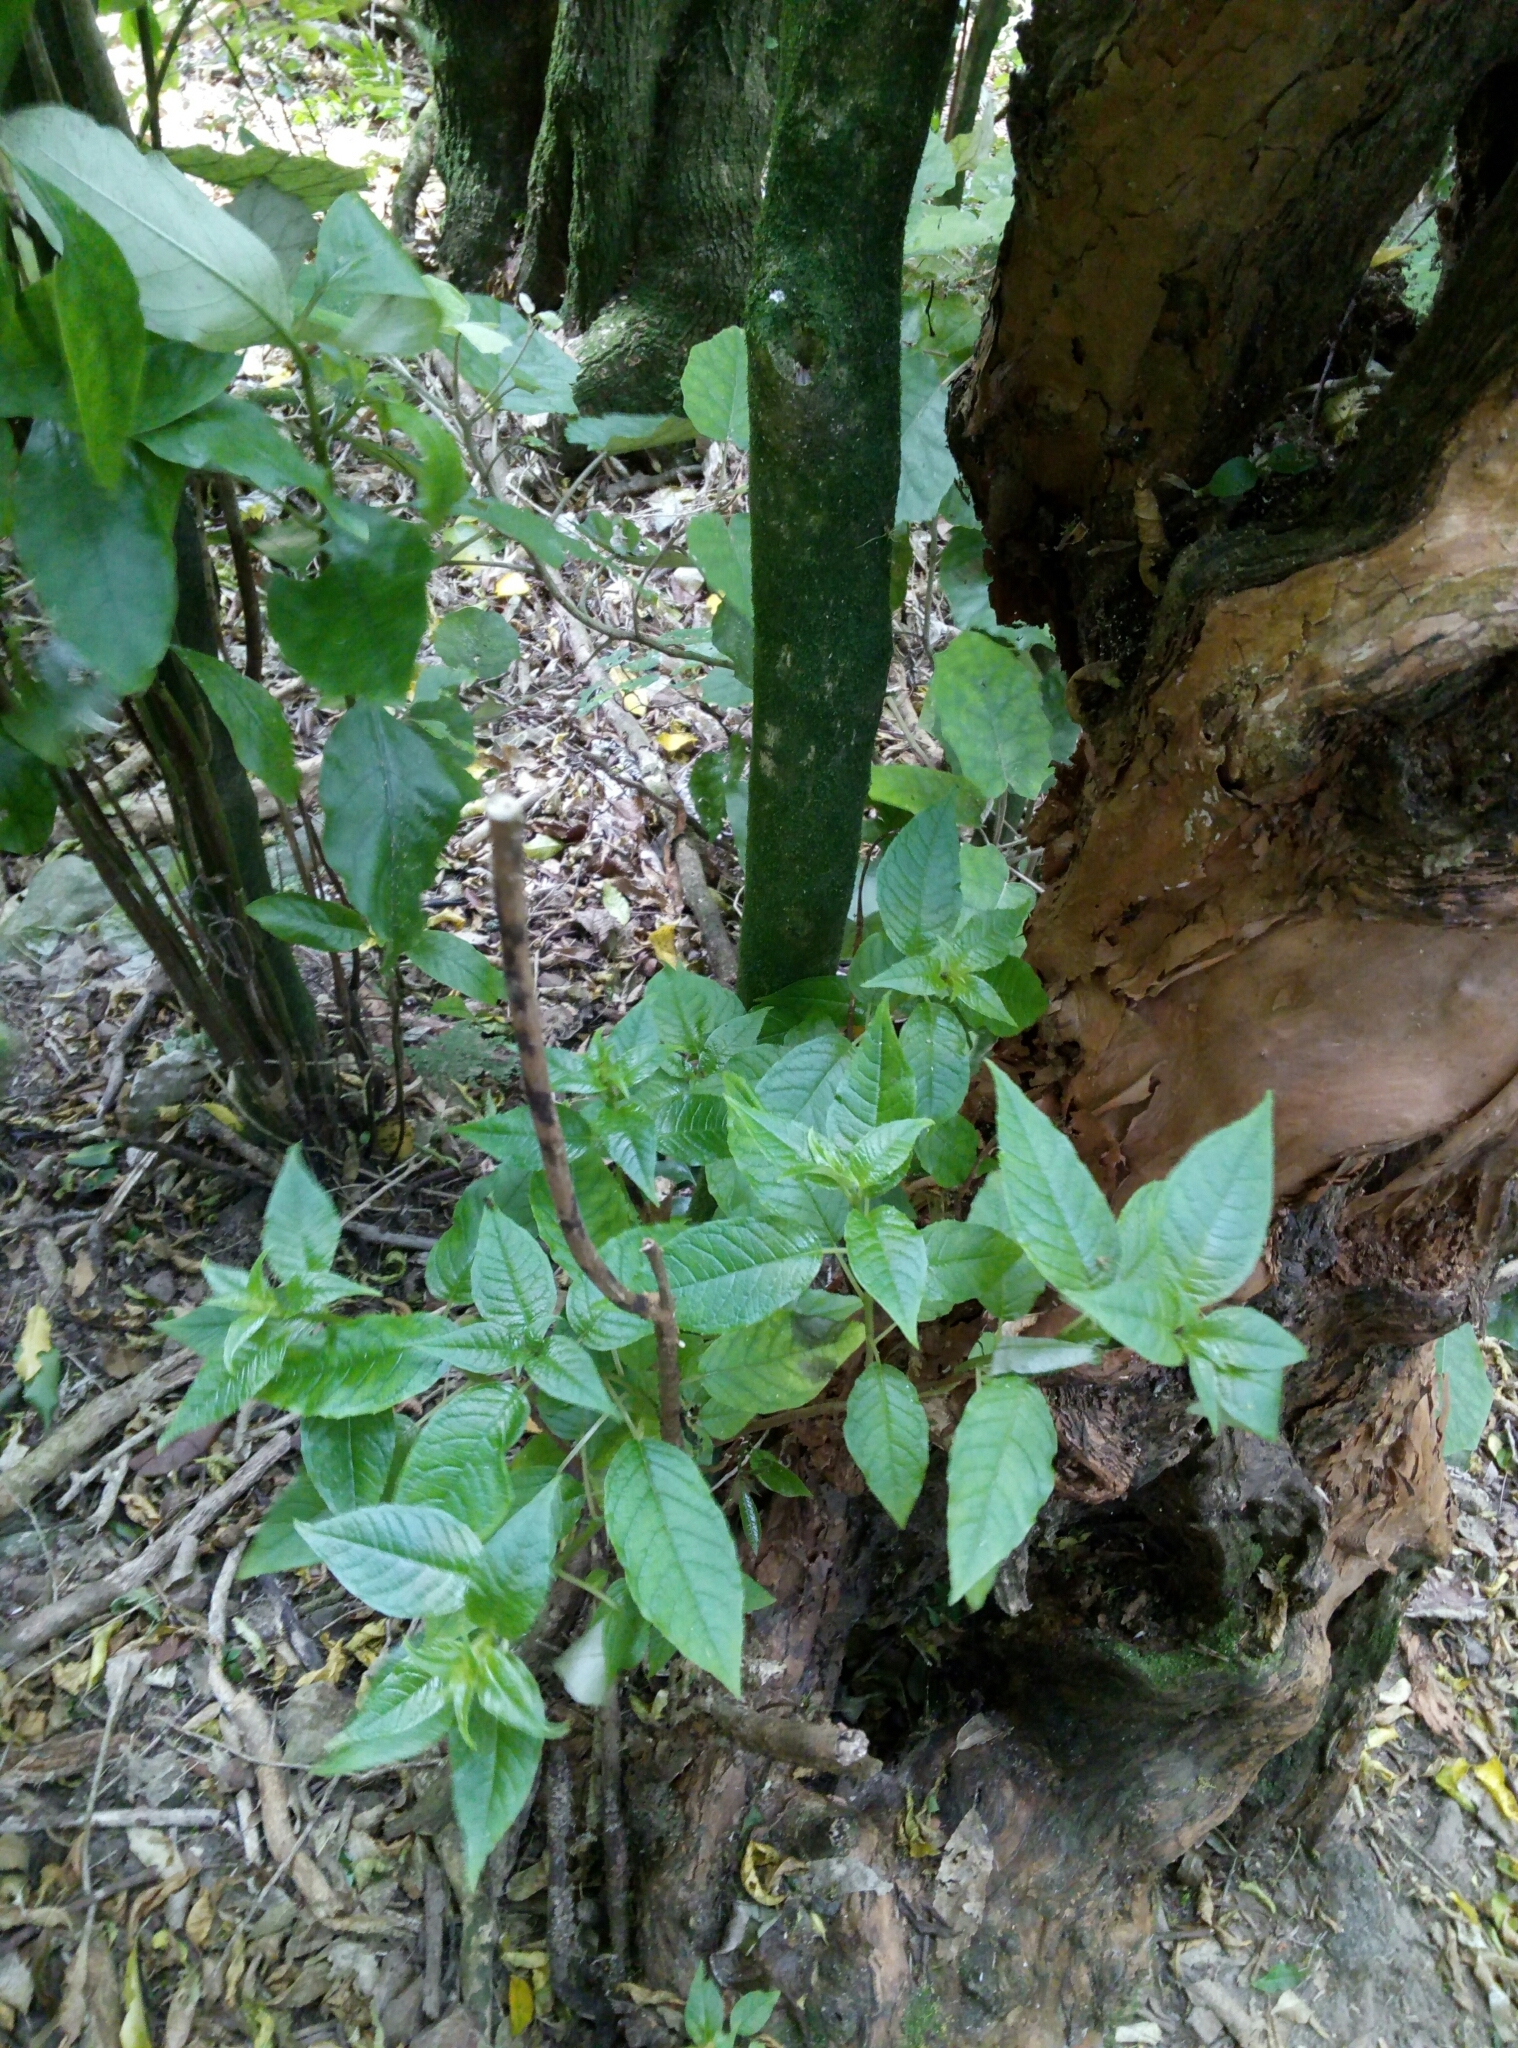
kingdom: Plantae
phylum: Tracheophyta
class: Magnoliopsida
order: Myrtales
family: Onagraceae
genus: Fuchsia
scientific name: Fuchsia excorticata
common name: Tree fuchsia
